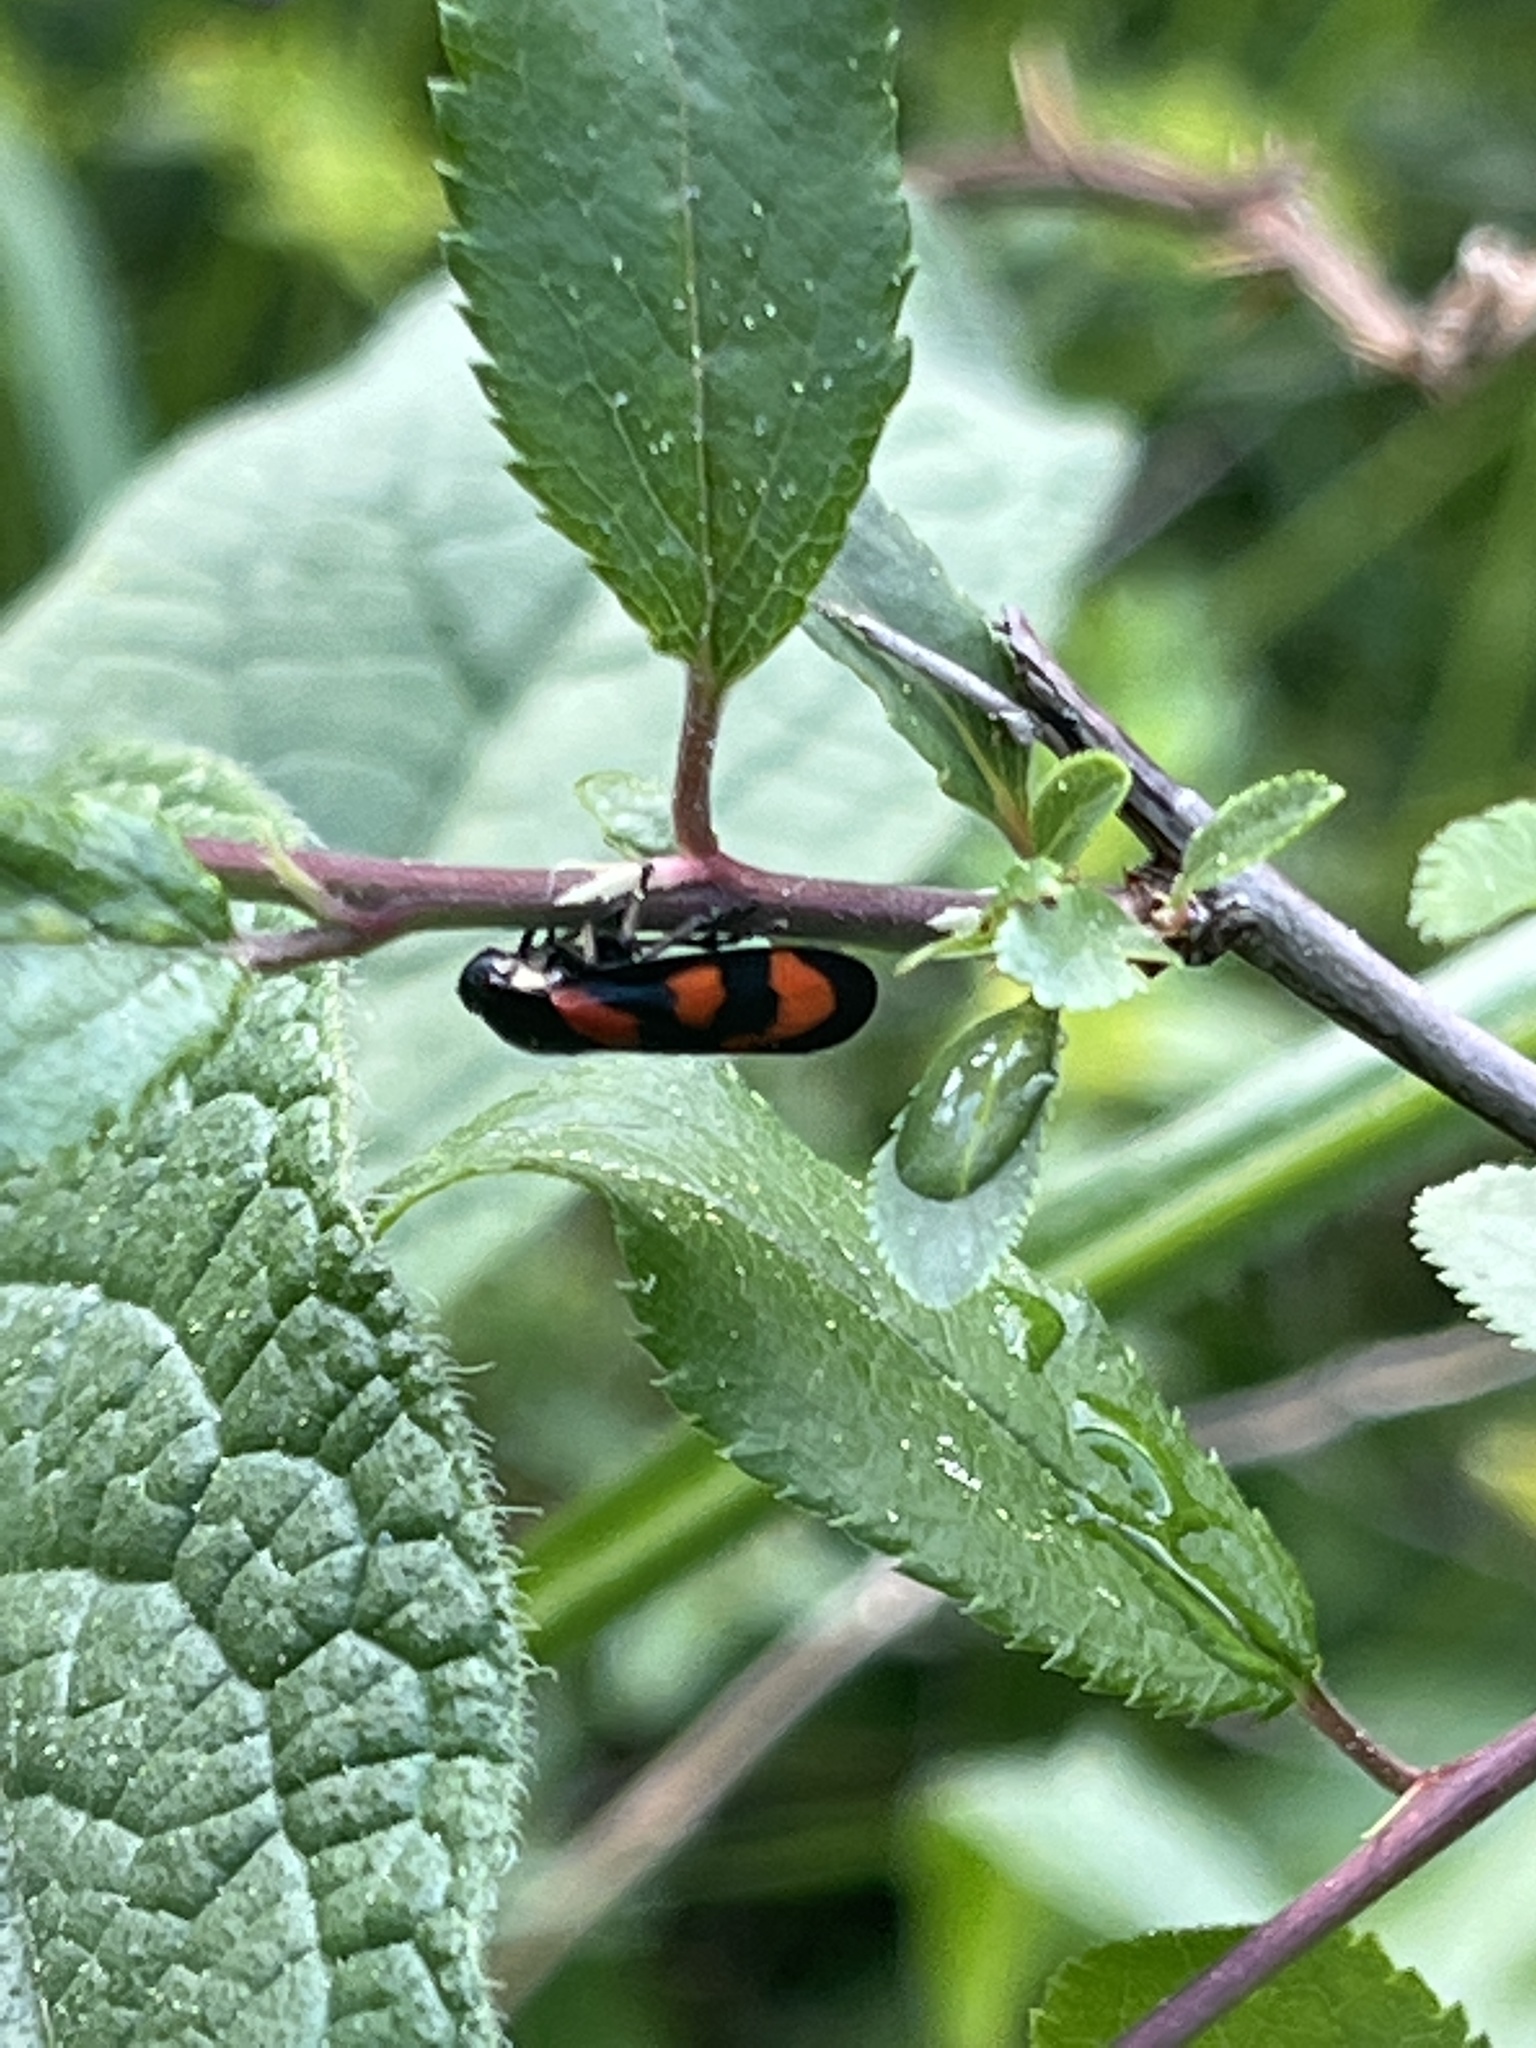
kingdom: Animalia
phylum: Arthropoda
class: Insecta
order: Hemiptera
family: Cercopidae
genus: Cercopis
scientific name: Cercopis vulnerata
